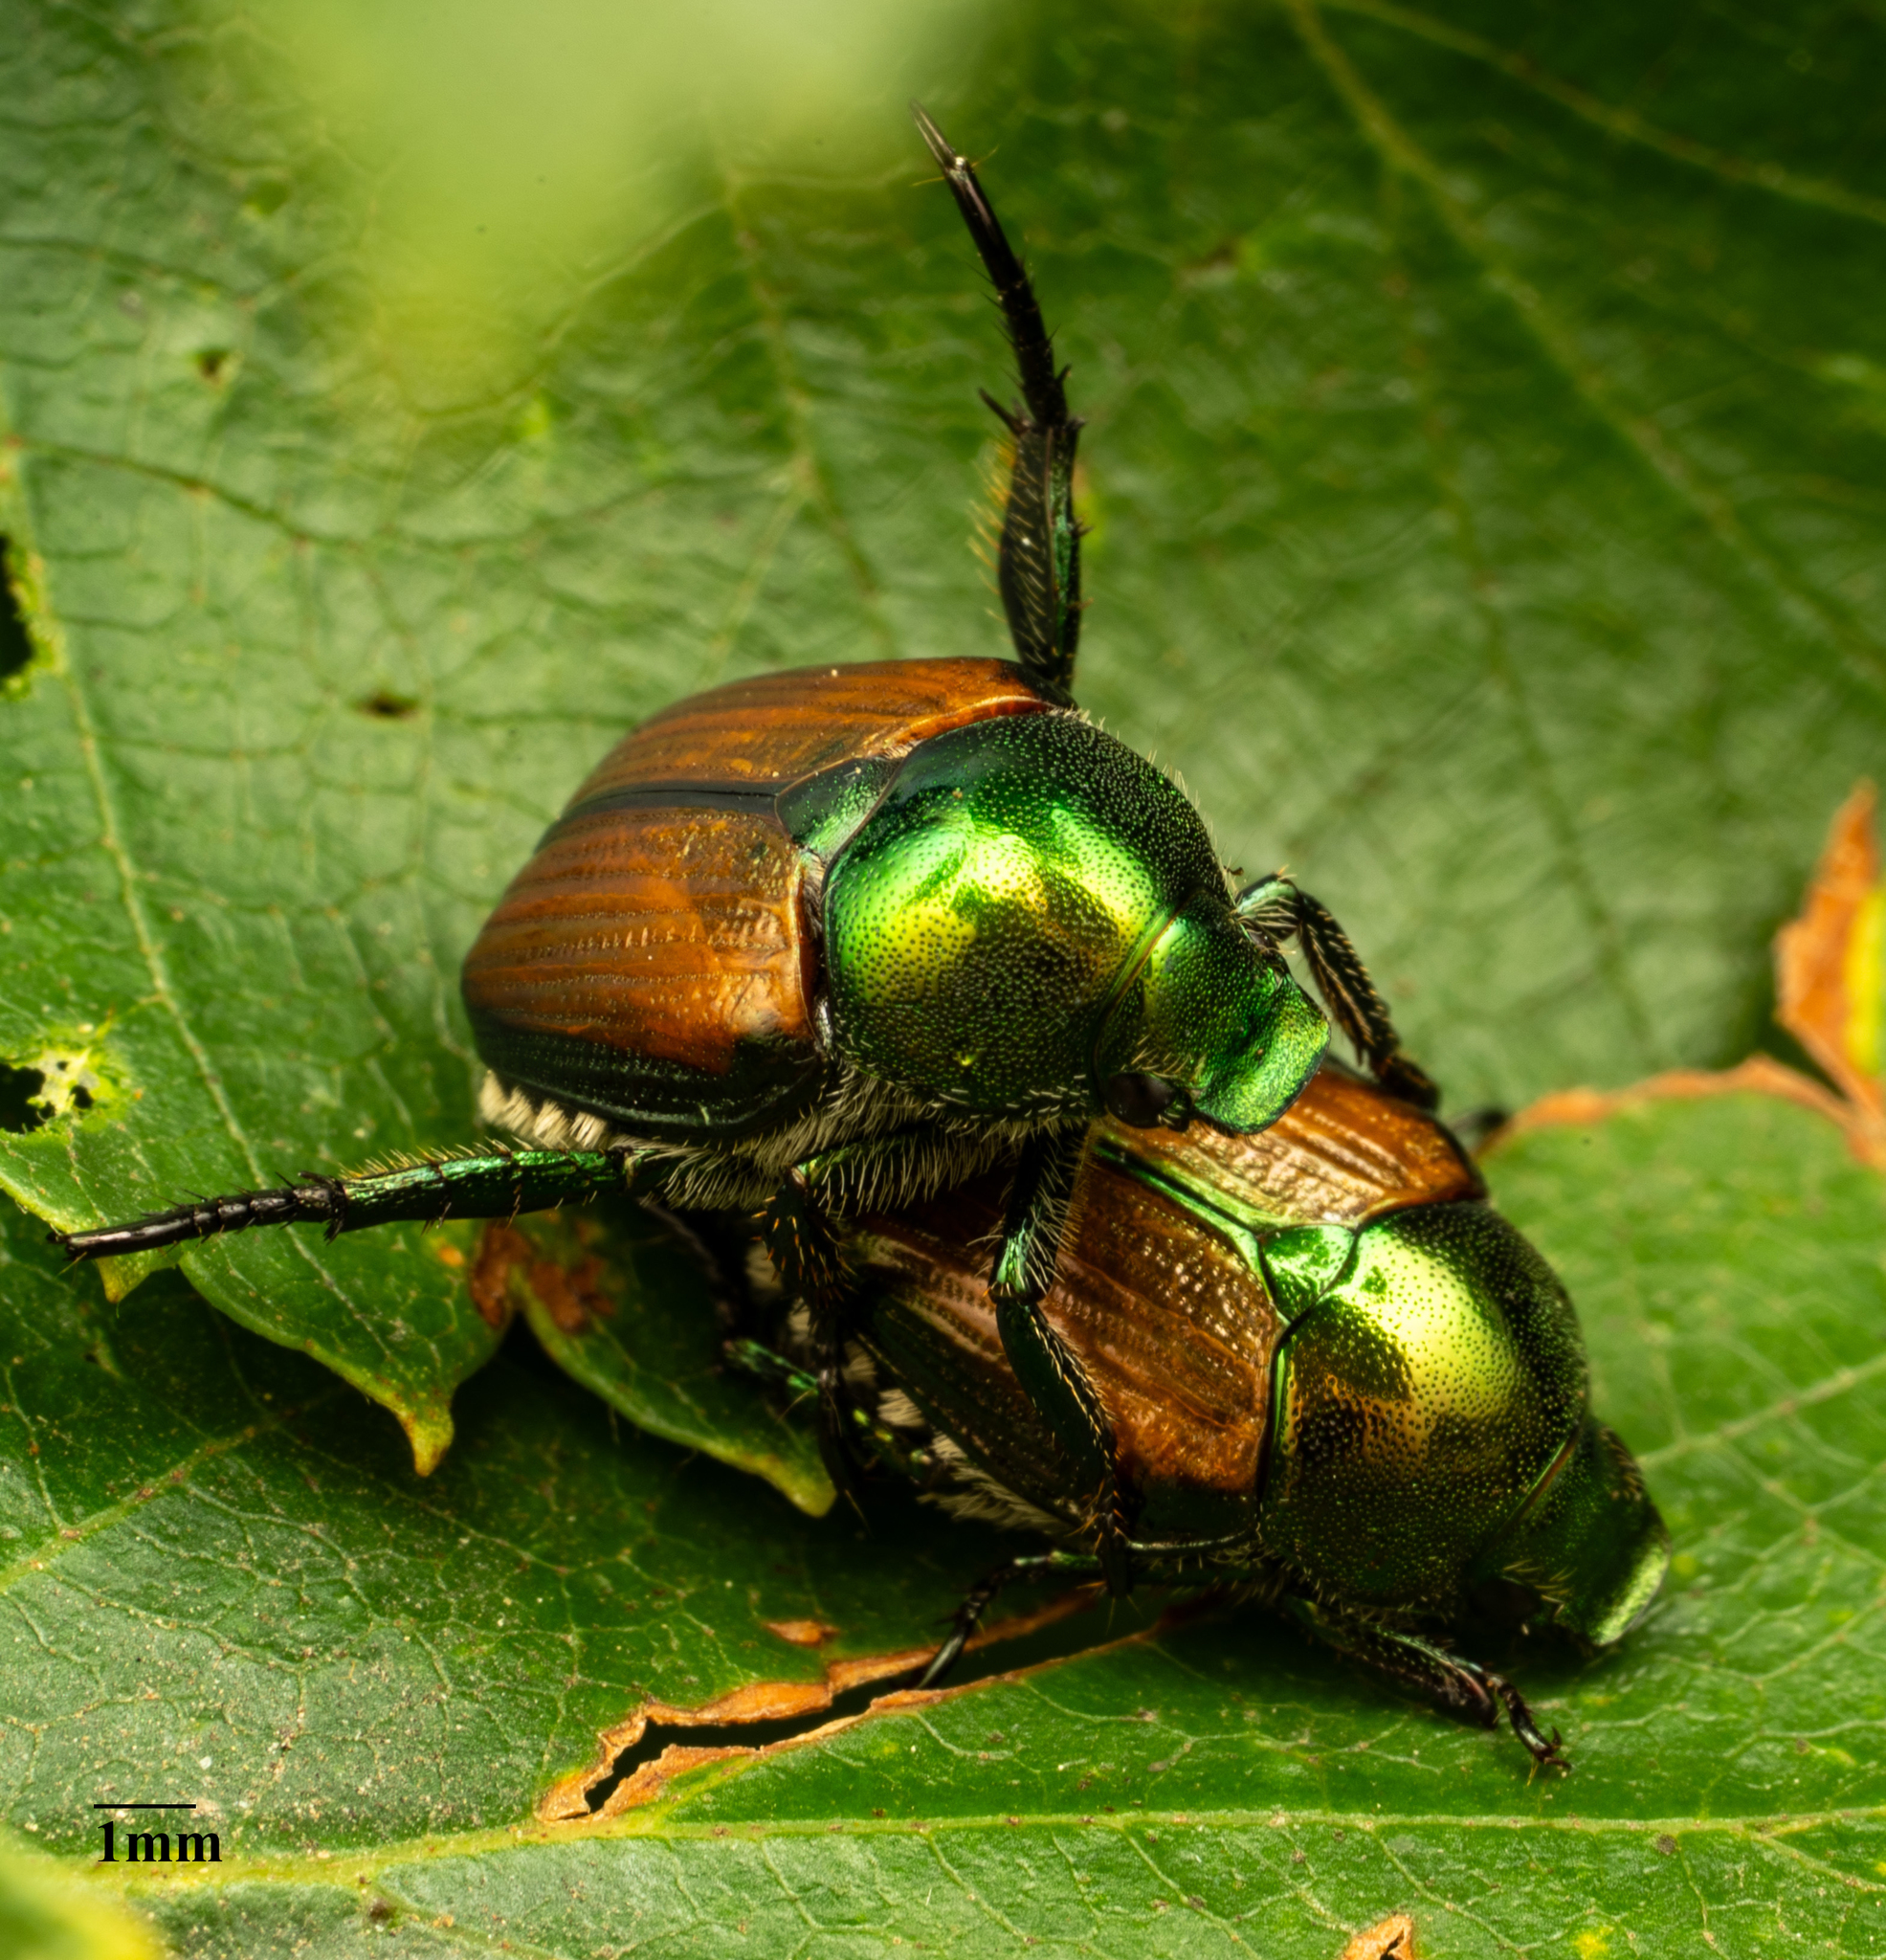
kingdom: Animalia
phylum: Arthropoda
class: Insecta
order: Coleoptera
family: Scarabaeidae
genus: Popillia
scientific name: Popillia japonica
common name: Japanese beetle
